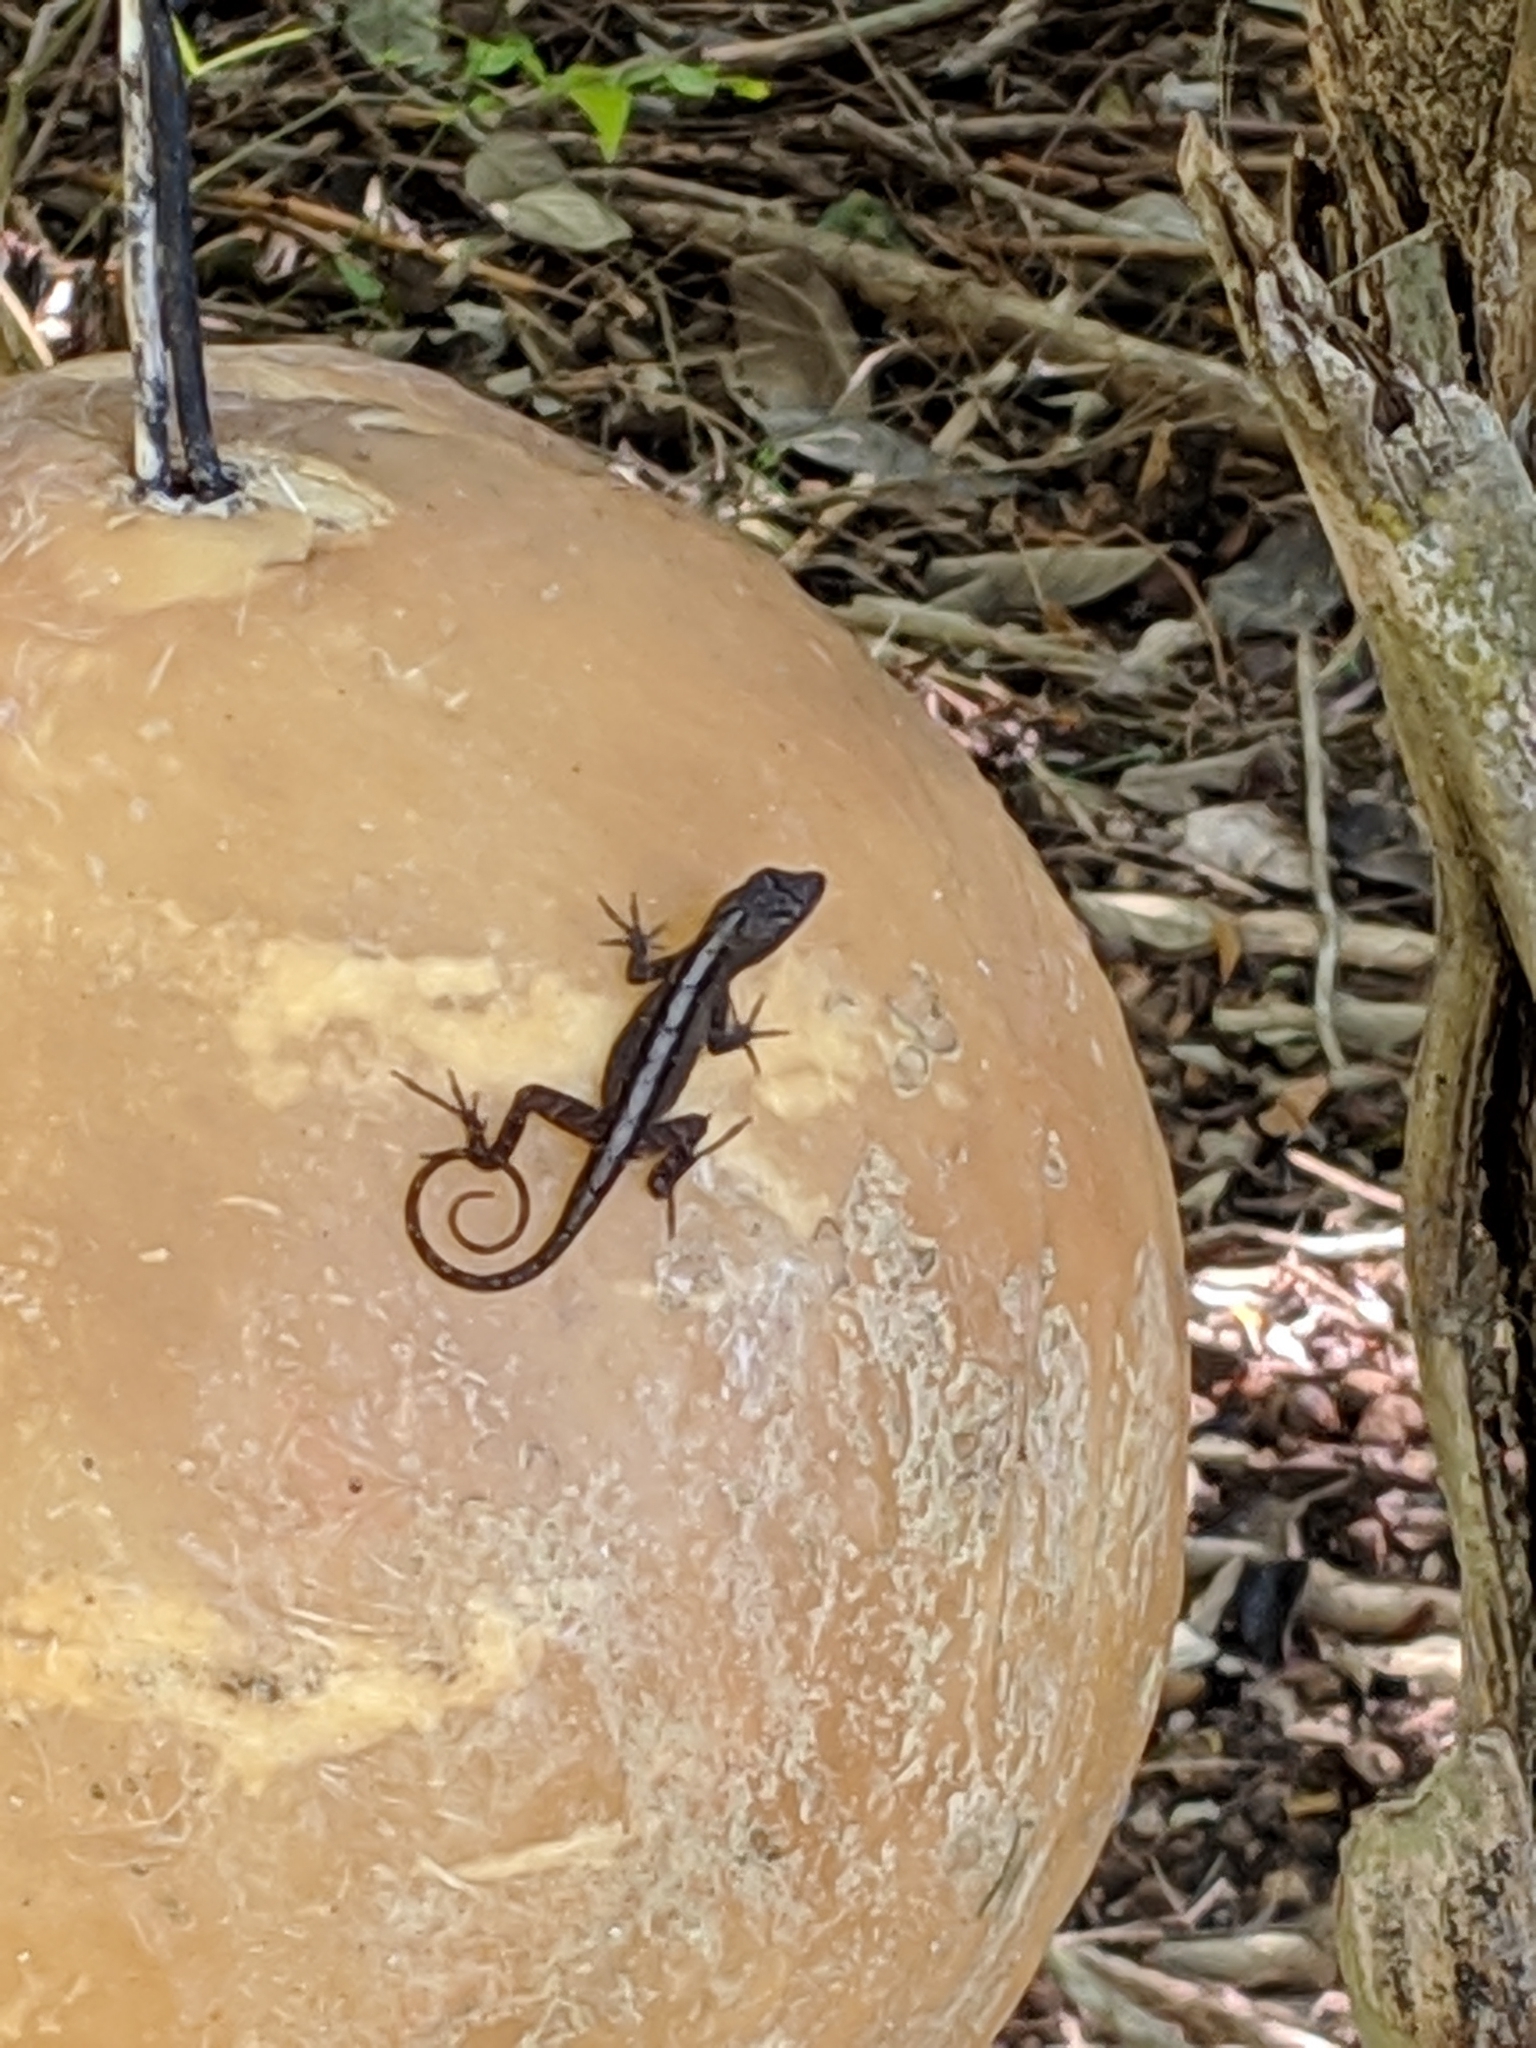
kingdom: Animalia
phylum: Chordata
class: Squamata
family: Dactyloidae
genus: Anolis
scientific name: Anolis sagrei
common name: Brown anole
